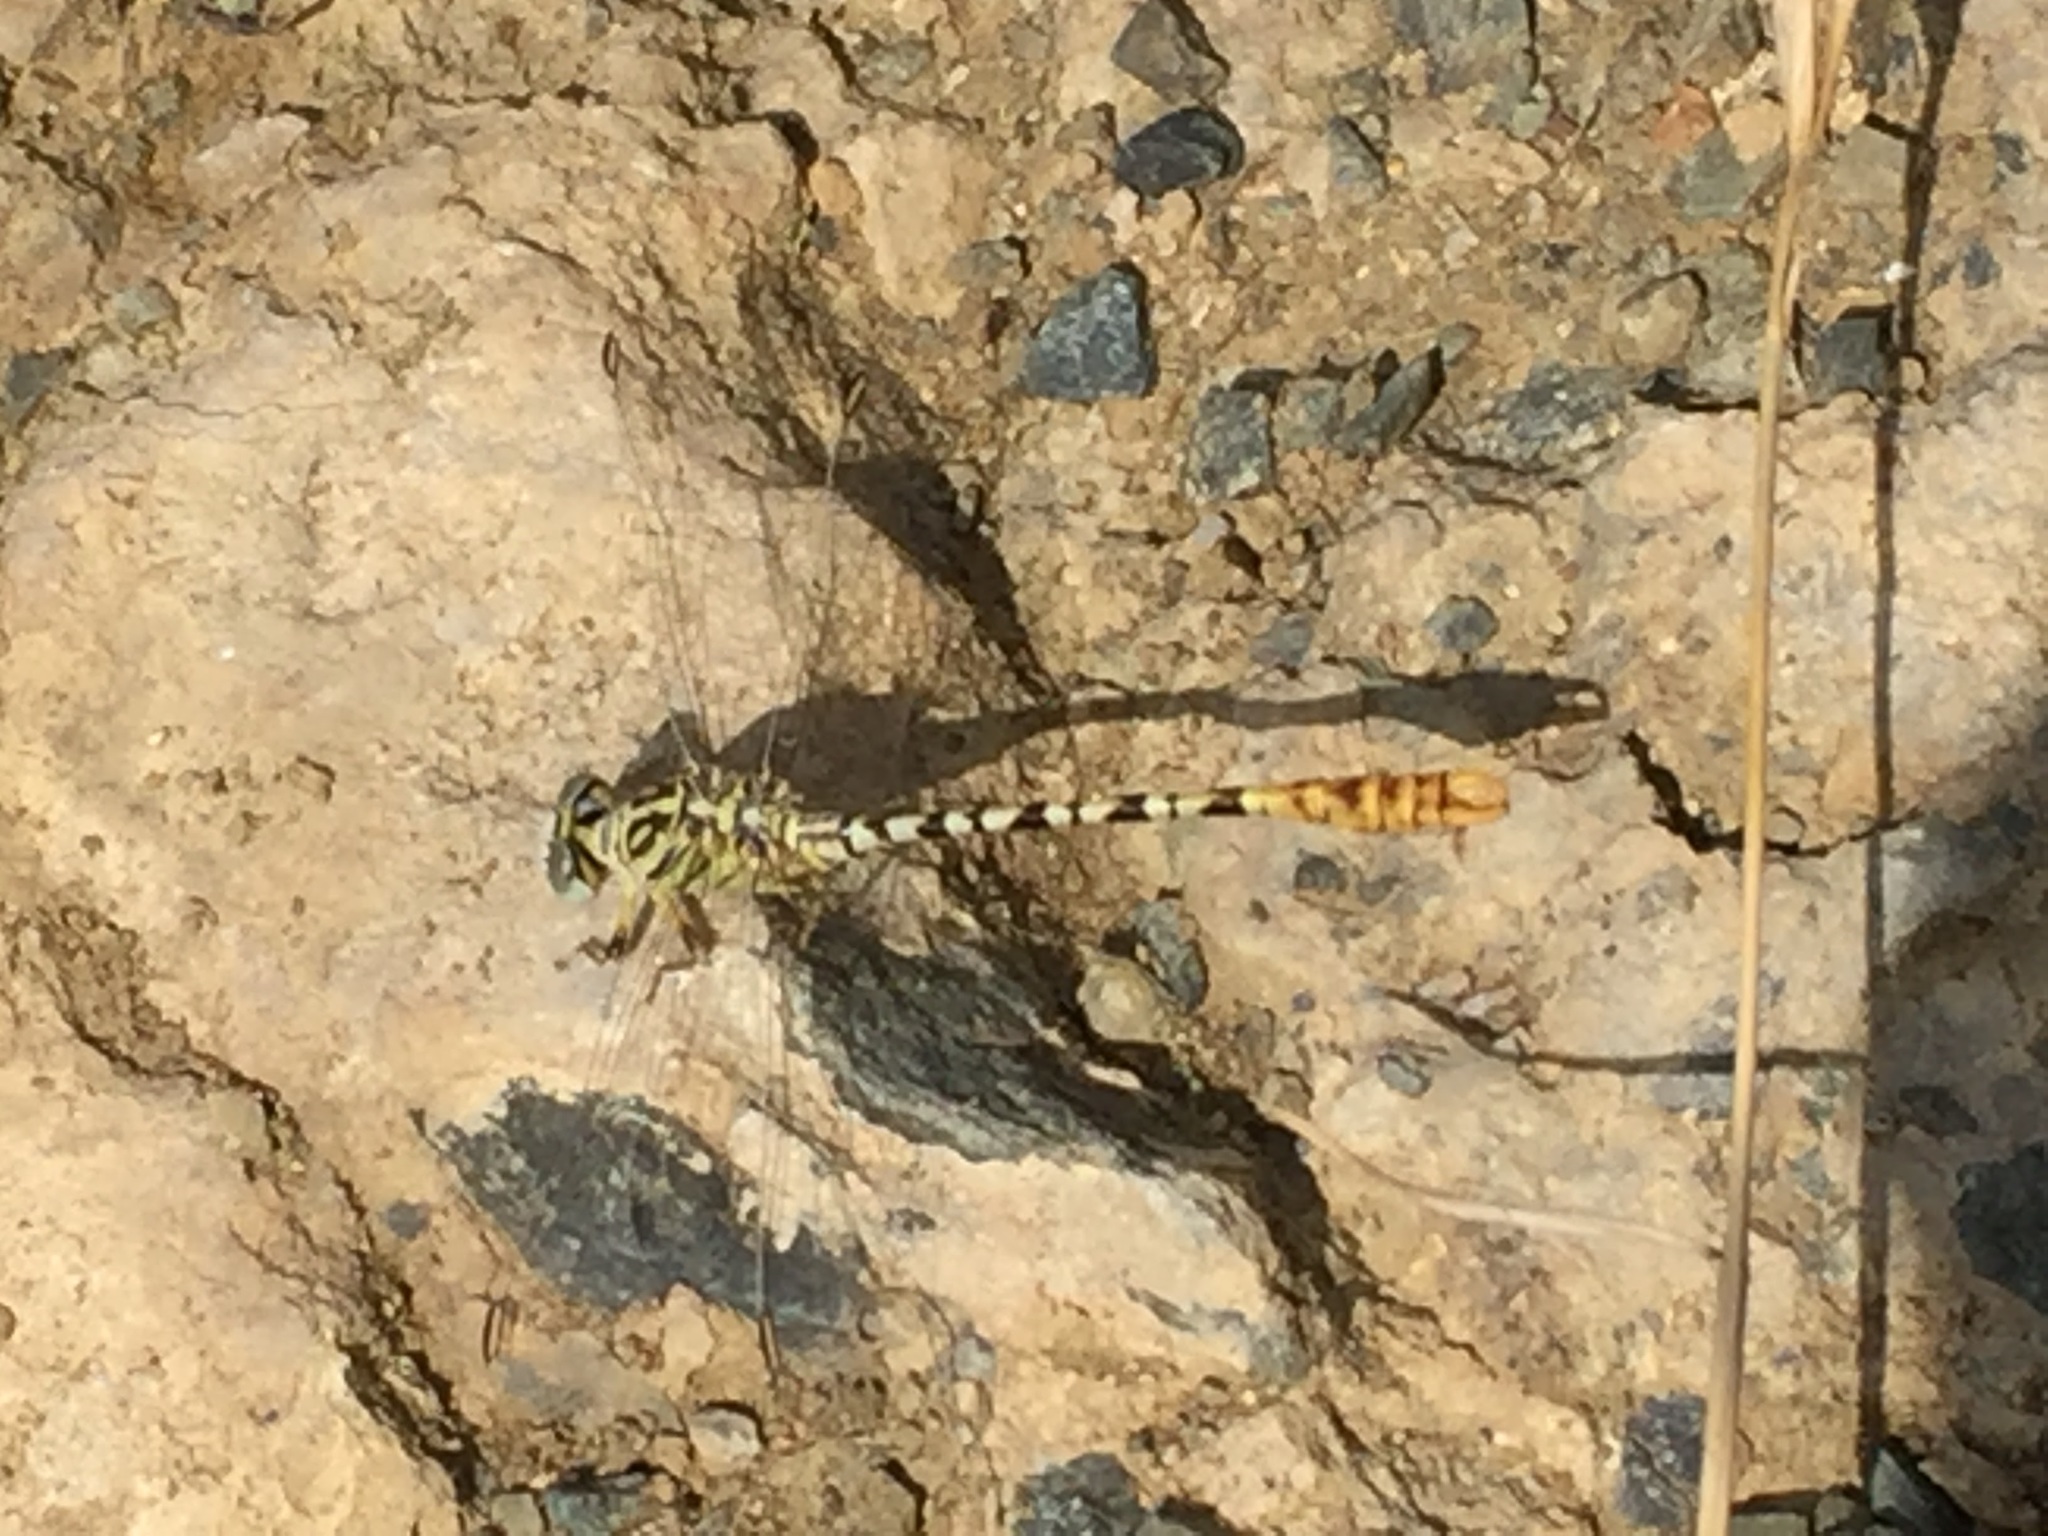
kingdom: Animalia
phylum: Arthropoda
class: Insecta
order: Odonata
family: Gomphidae
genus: Onychogomphus
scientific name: Onychogomphus flexuosus
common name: Waved pincertail
